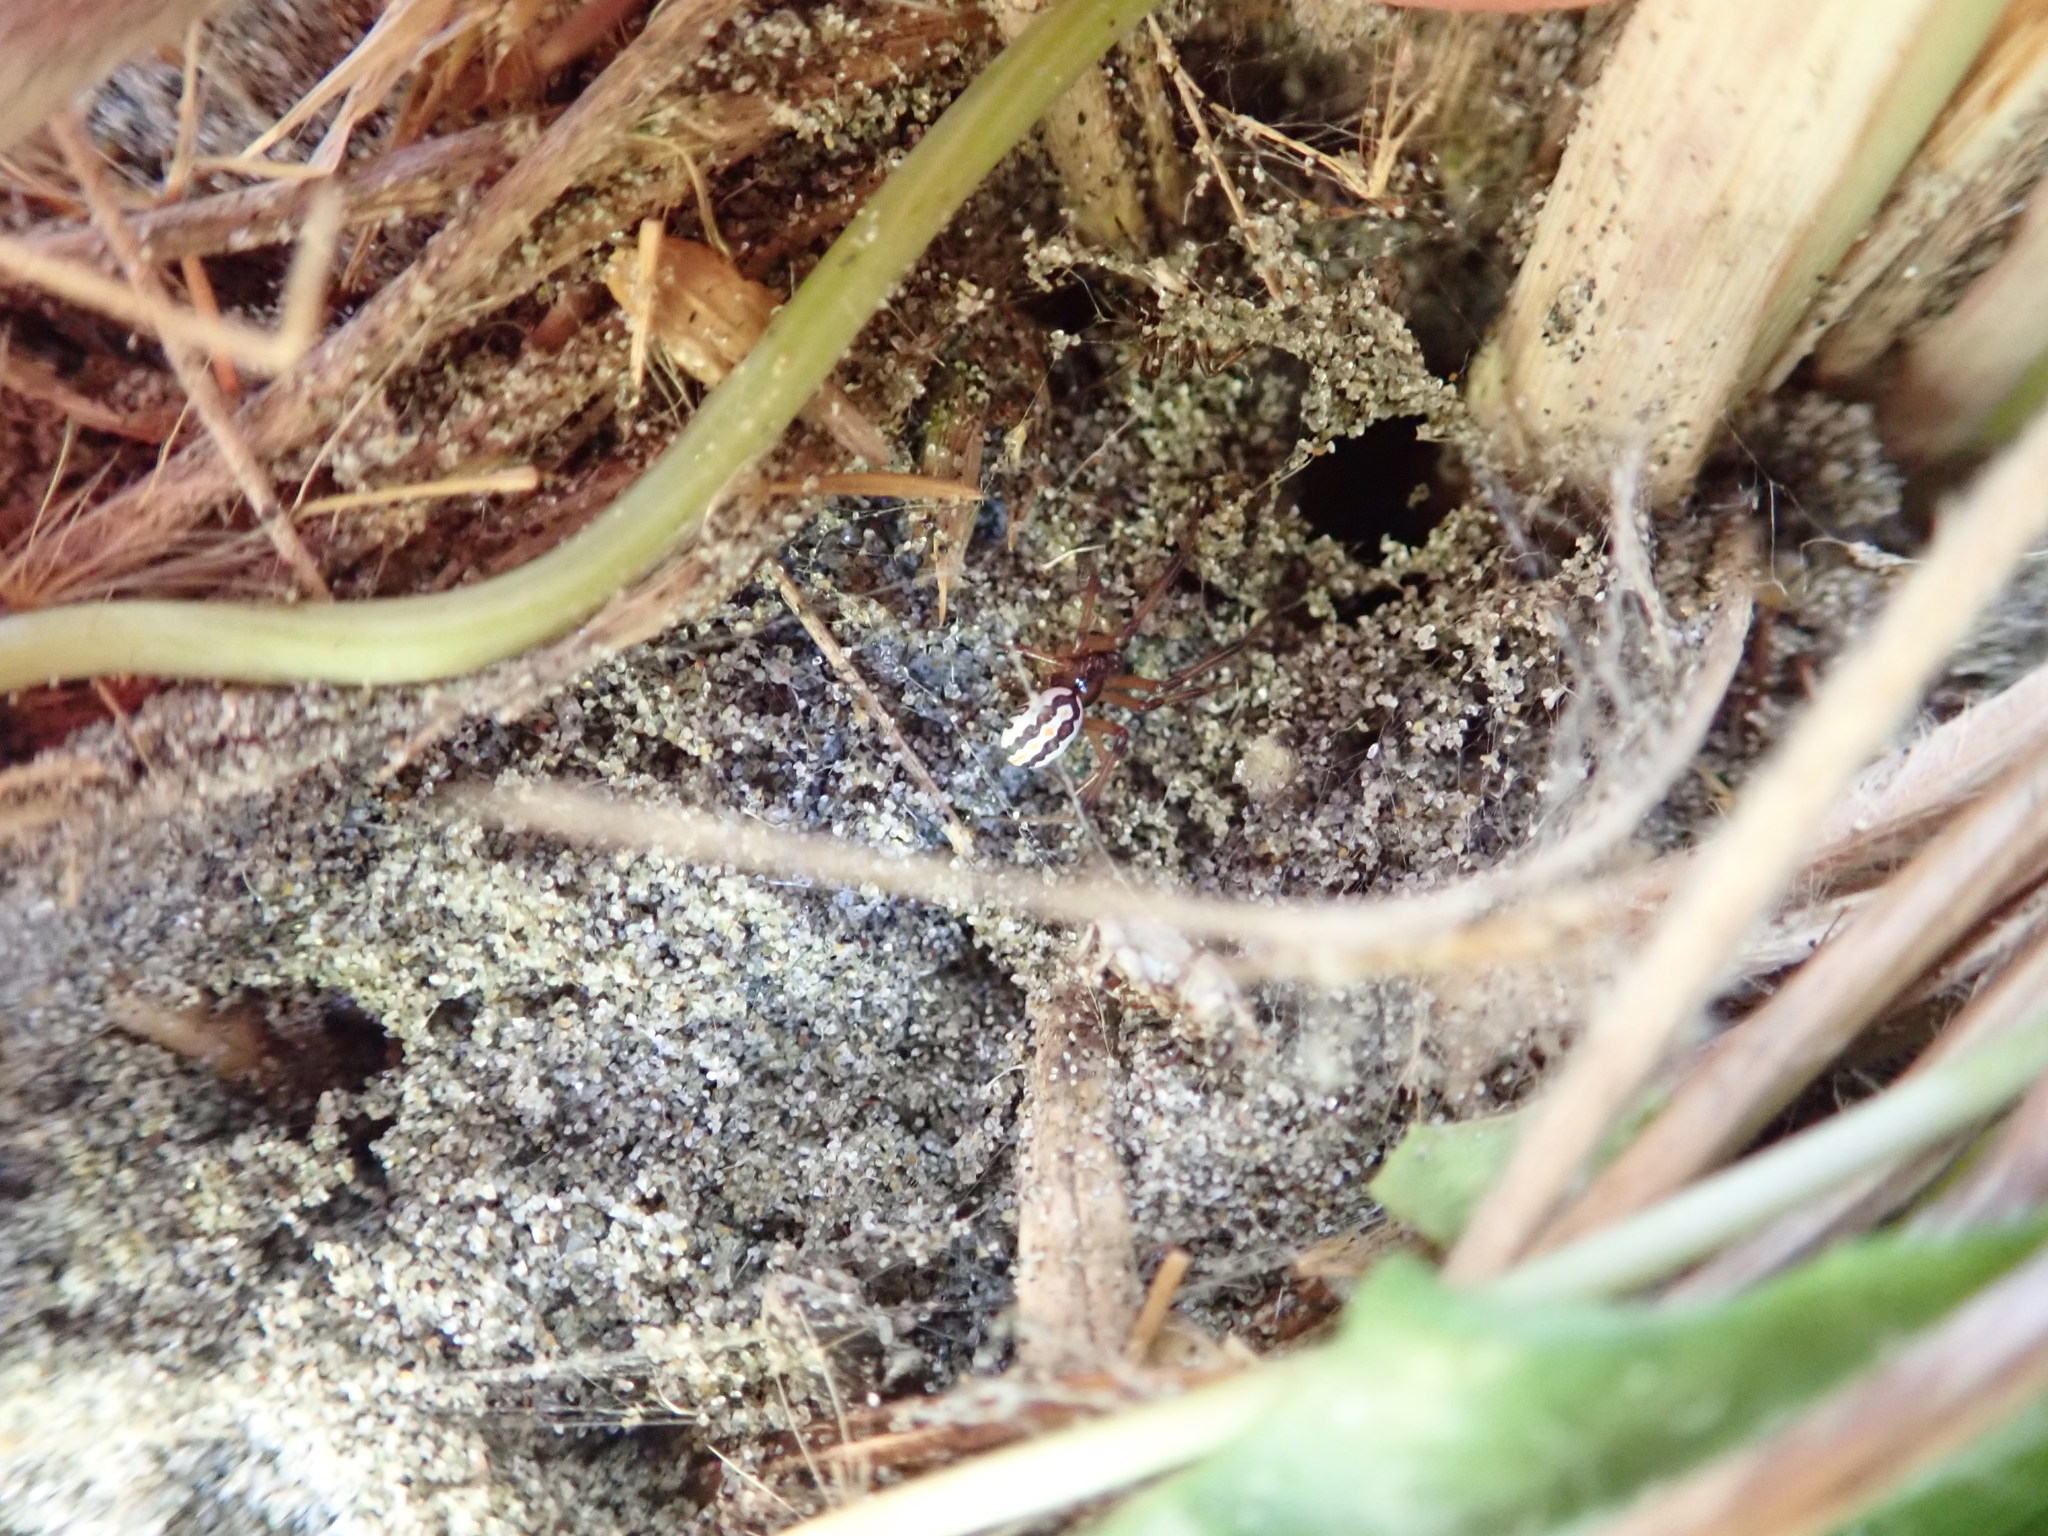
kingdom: Animalia
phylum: Arthropoda
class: Arachnida
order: Araneae
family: Theridiidae
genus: Latrodectus
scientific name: Latrodectus katipo
